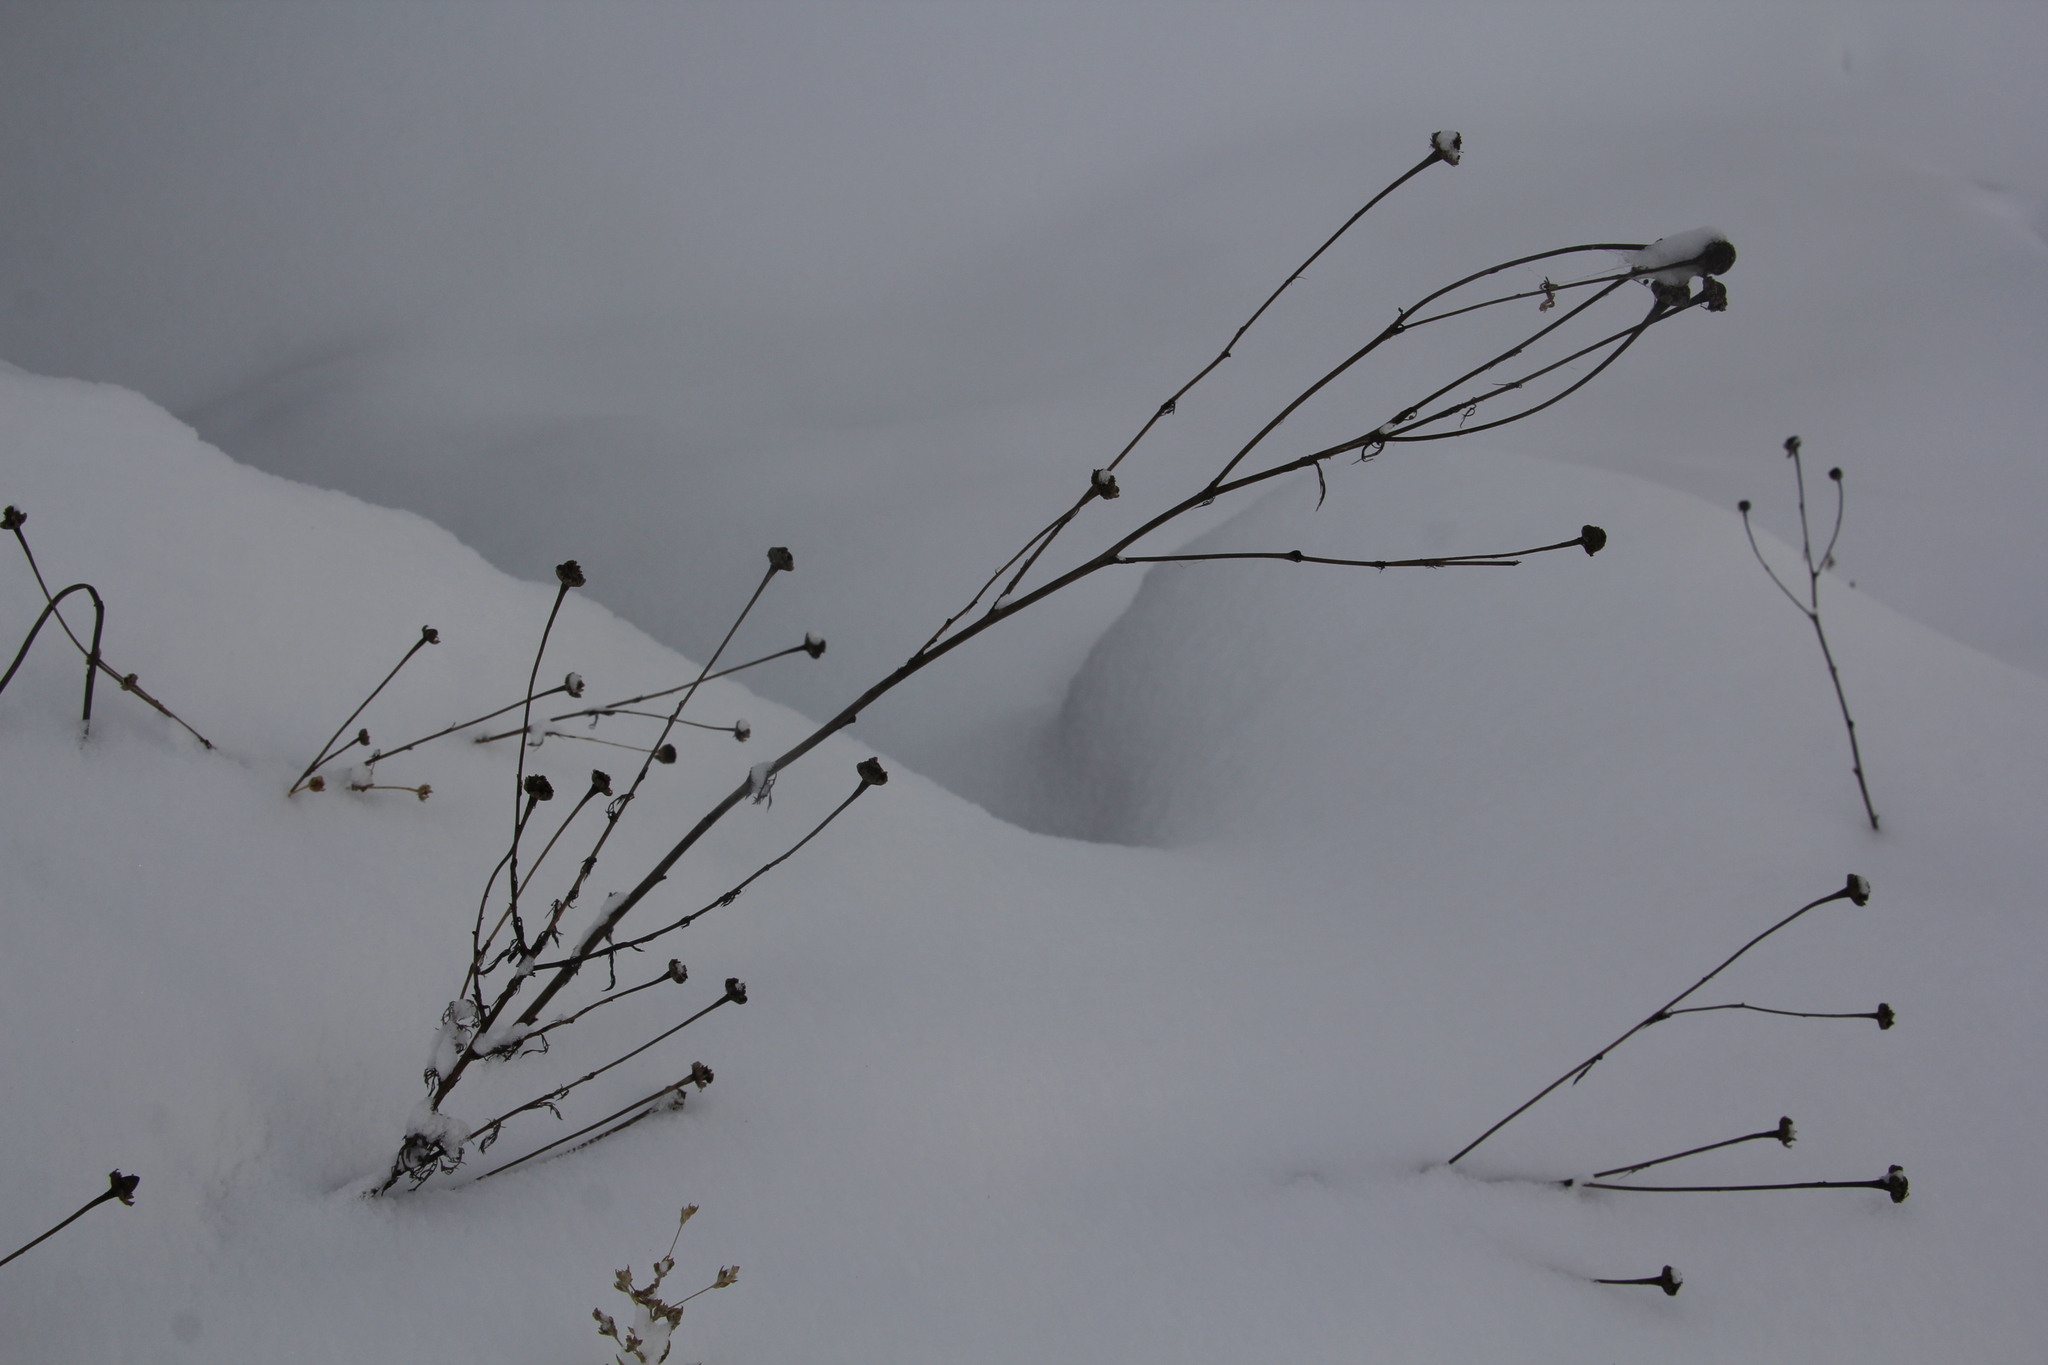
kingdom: Plantae
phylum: Tracheophyta
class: Magnoliopsida
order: Asterales
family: Asteraceae
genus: Tripleurospermum
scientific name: Tripleurospermum inodorum
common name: Scentless mayweed
